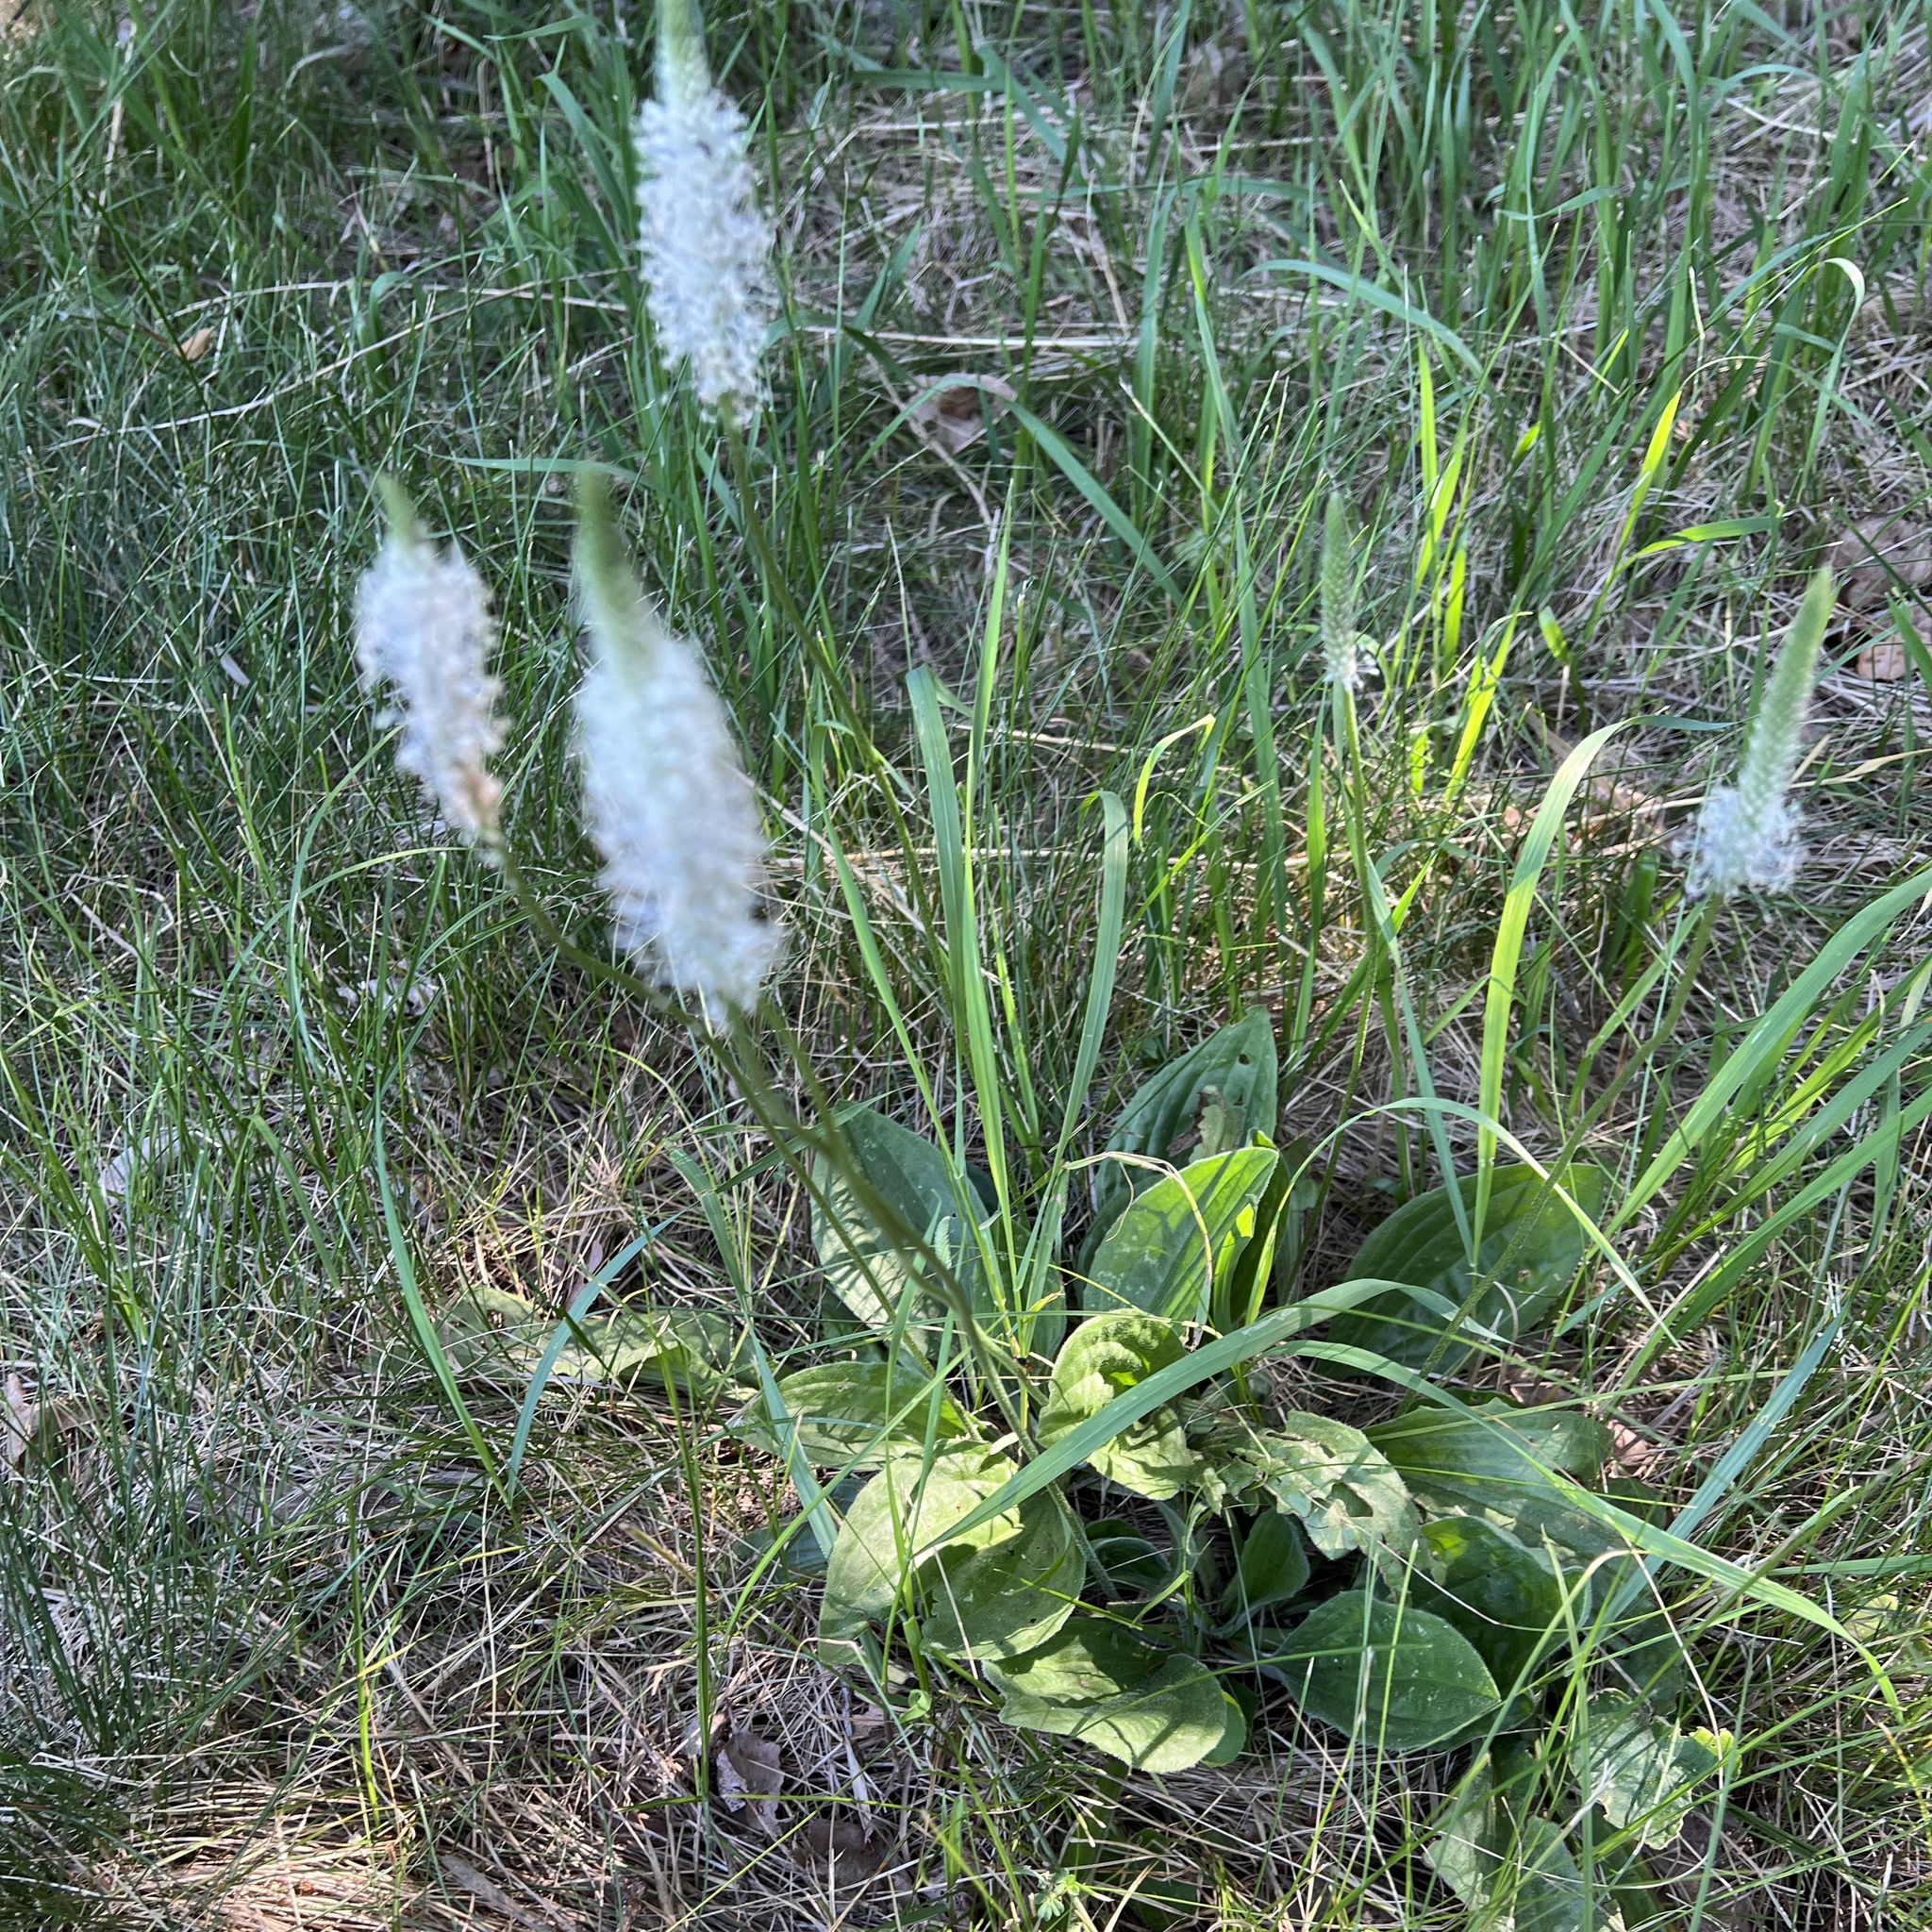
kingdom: Plantae
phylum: Tracheophyta
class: Magnoliopsida
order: Lamiales
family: Plantaginaceae
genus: Plantago
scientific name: Plantago media
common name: Hoary plantain
